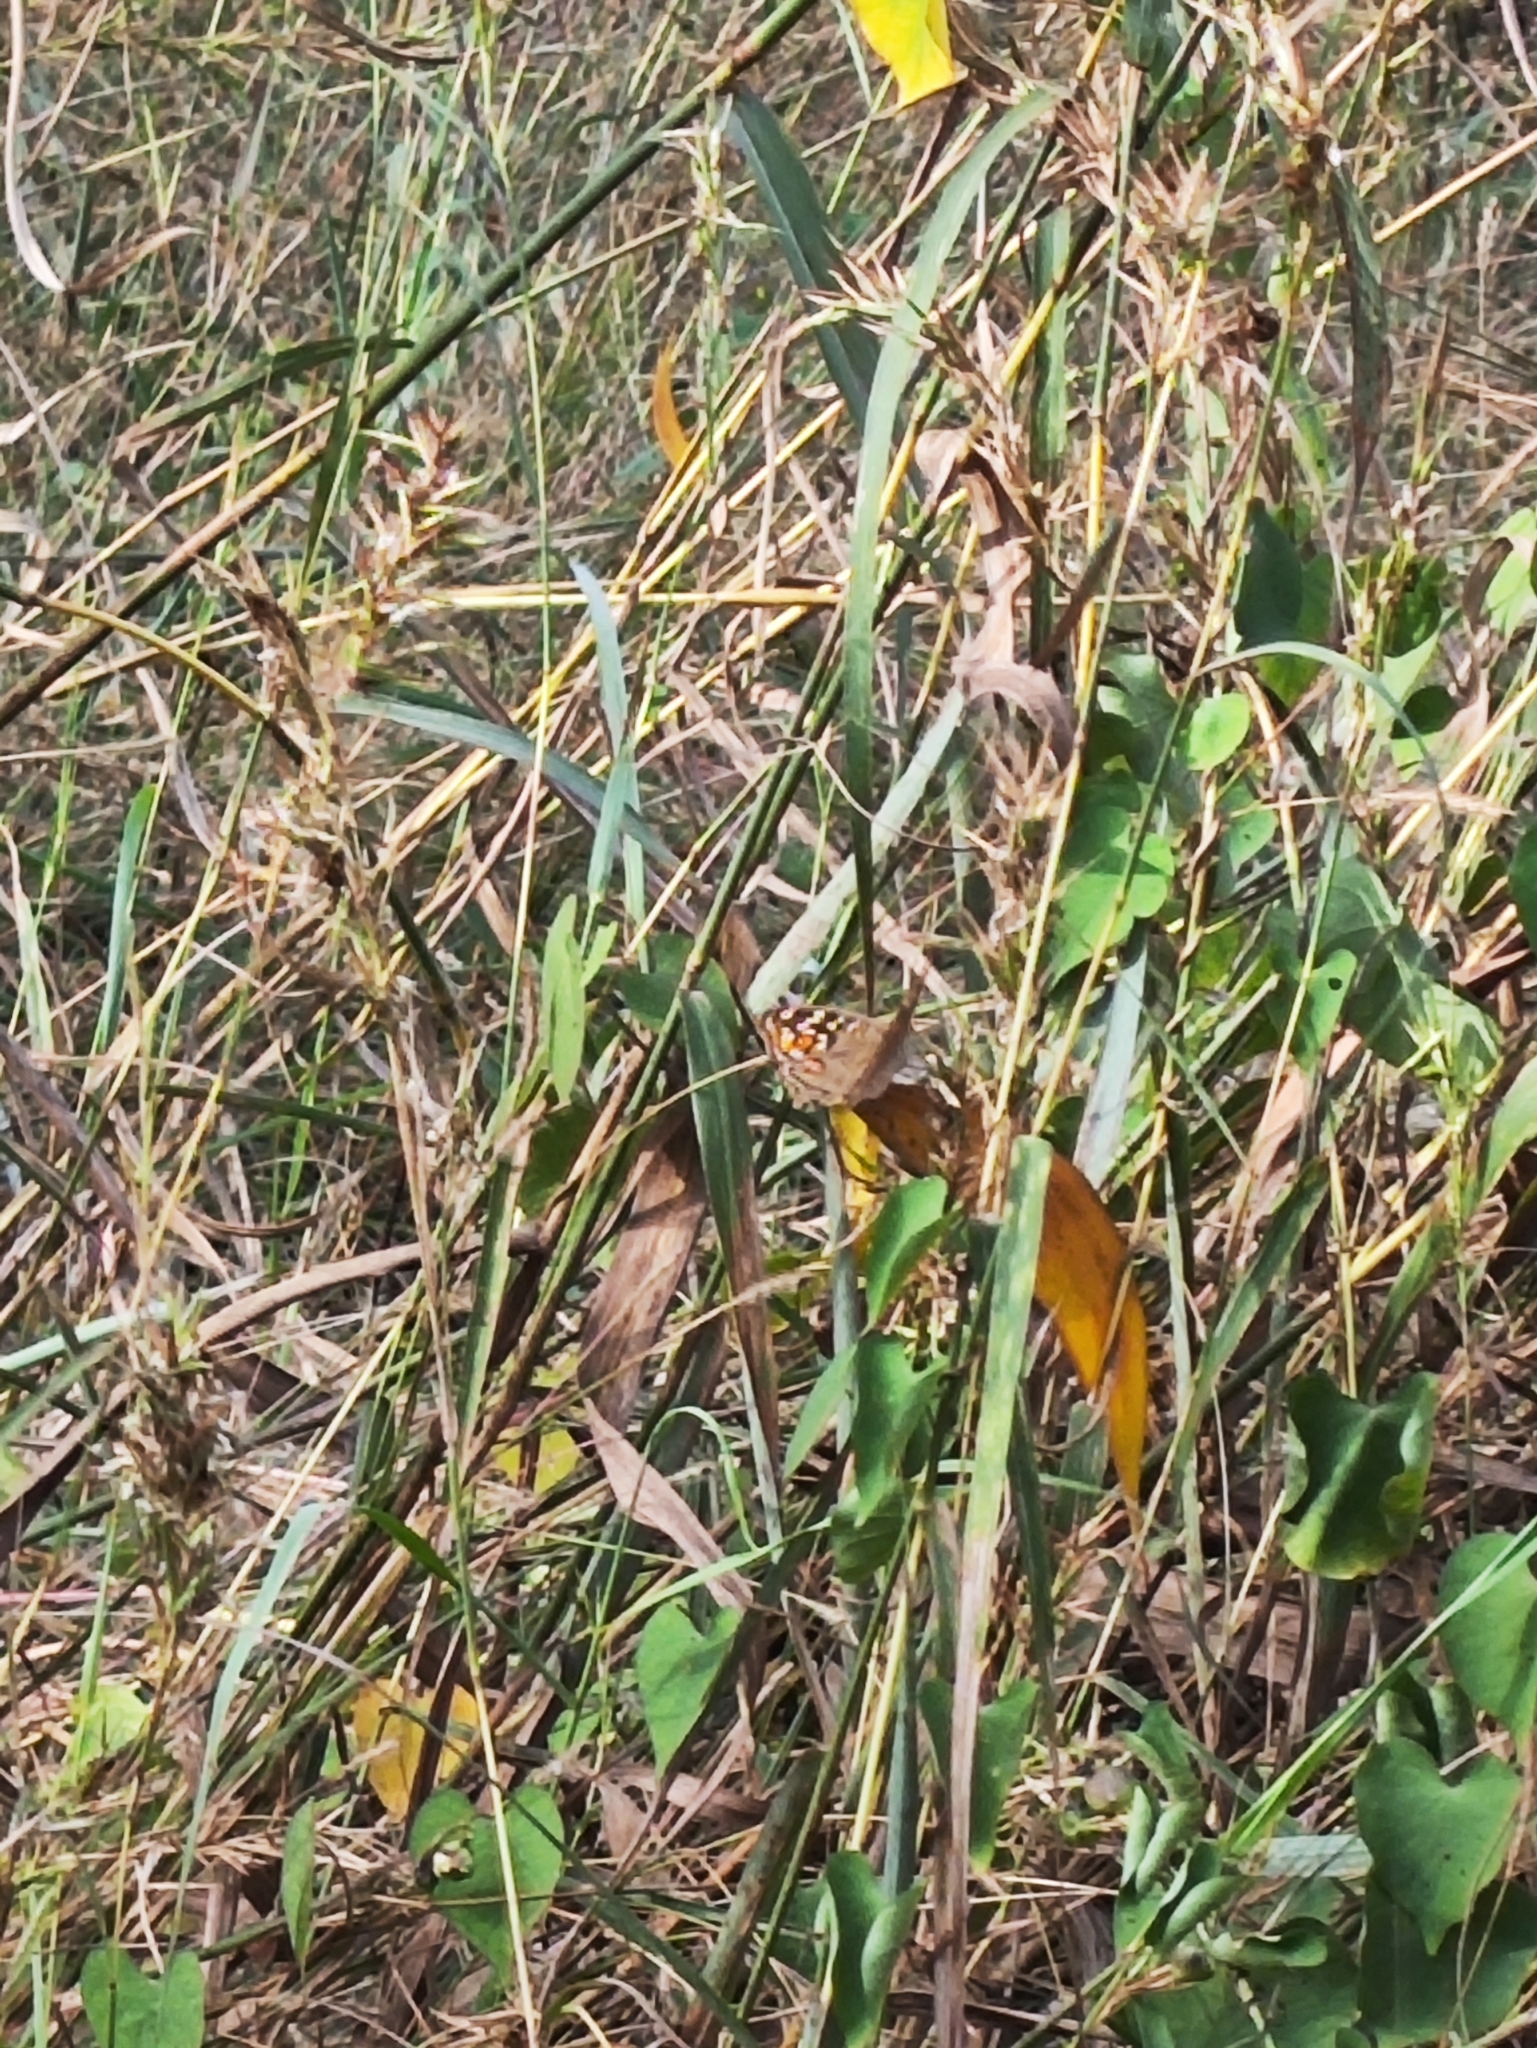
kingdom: Animalia
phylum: Arthropoda
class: Insecta
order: Lepidoptera
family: Nymphalidae
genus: Junonia
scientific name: Junonia lemonias
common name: Lemon pansy
